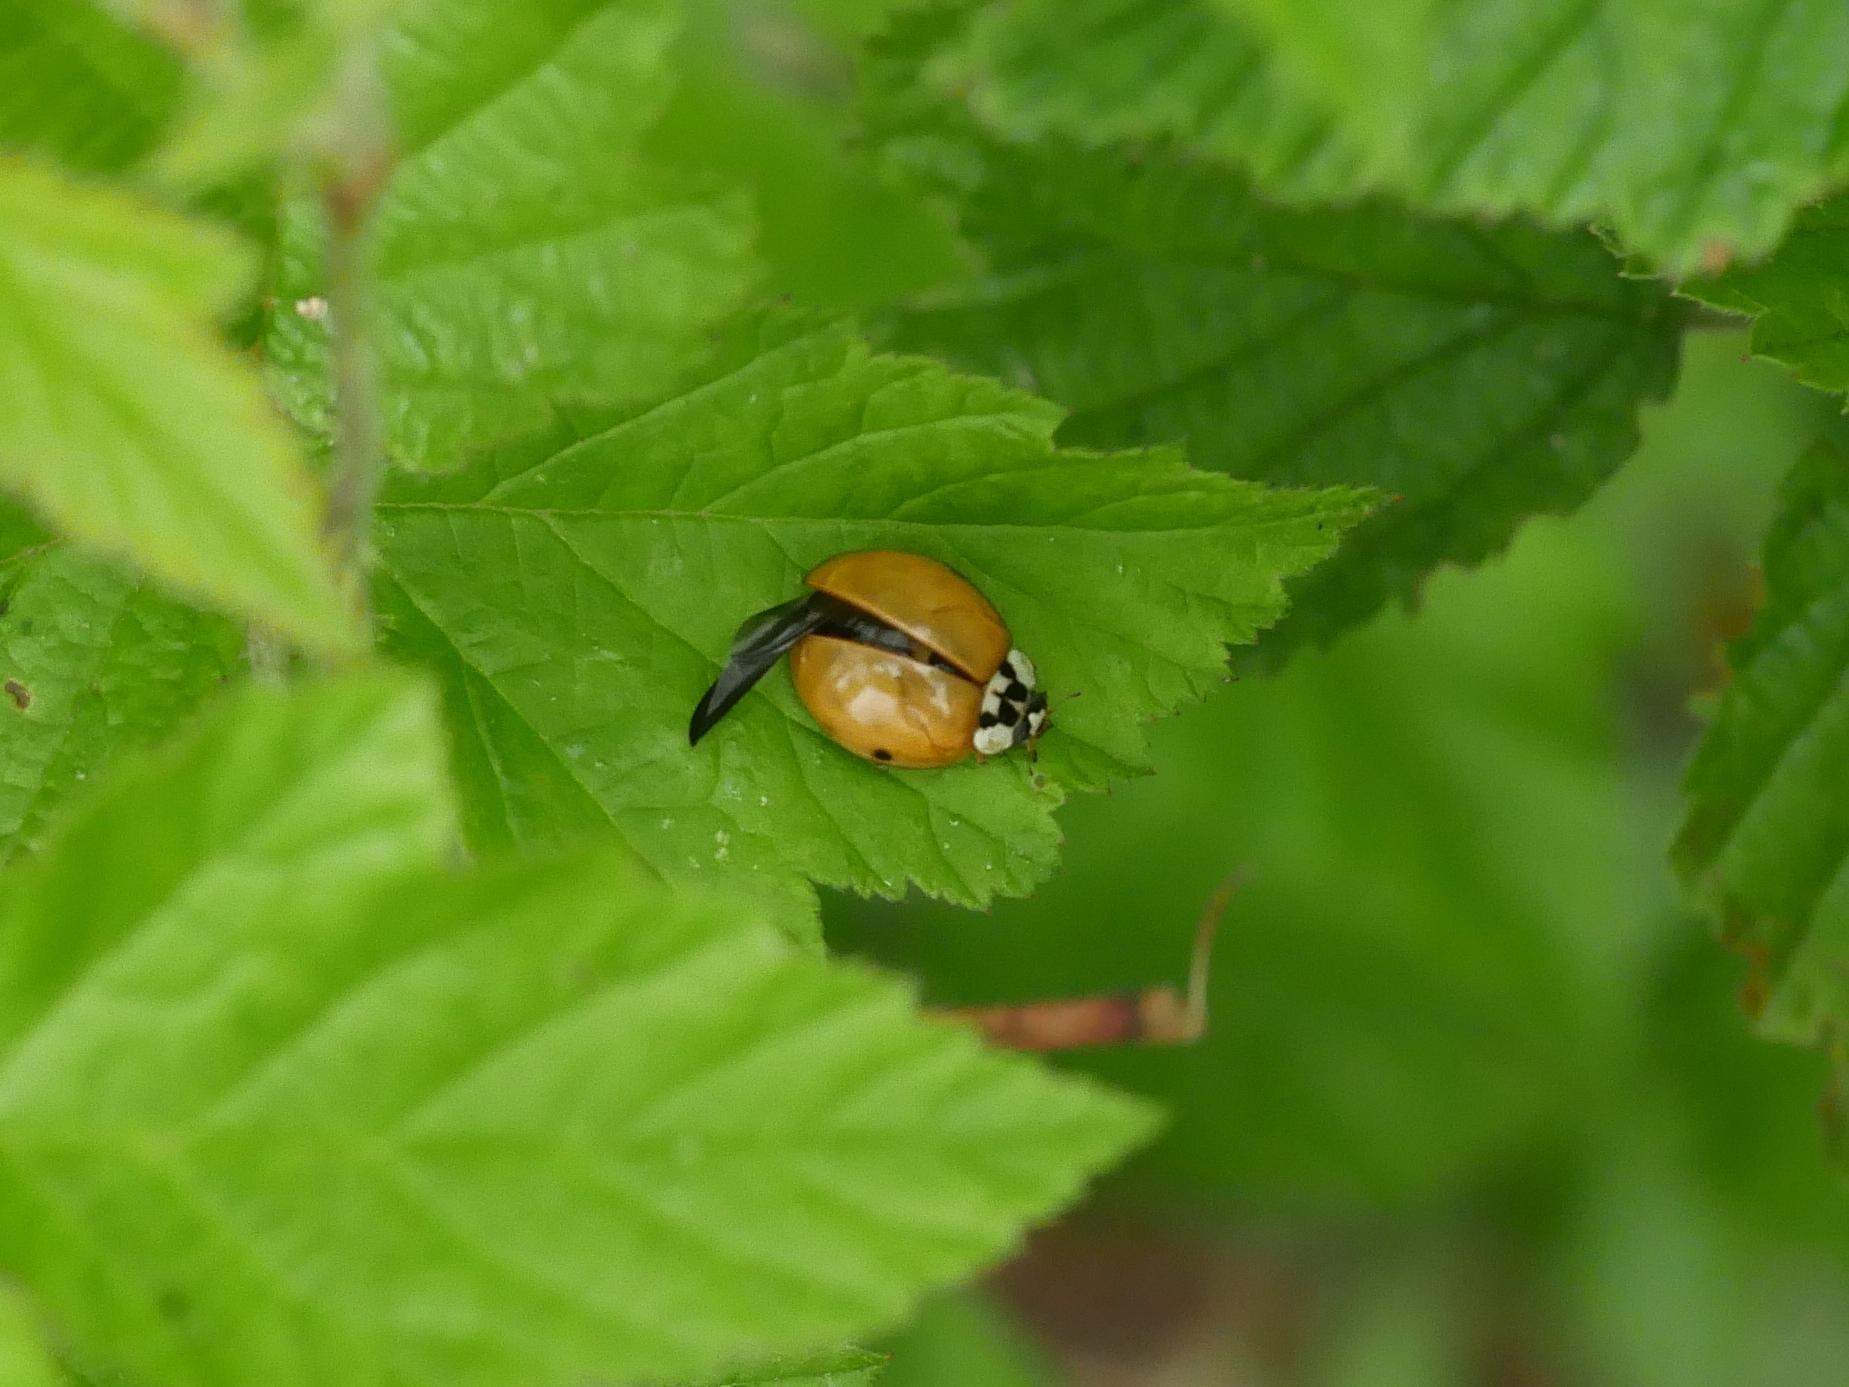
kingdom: Animalia
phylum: Arthropoda
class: Insecta
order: Coleoptera
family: Coccinellidae
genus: Harmonia
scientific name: Harmonia axyridis
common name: Harlequin ladybird
